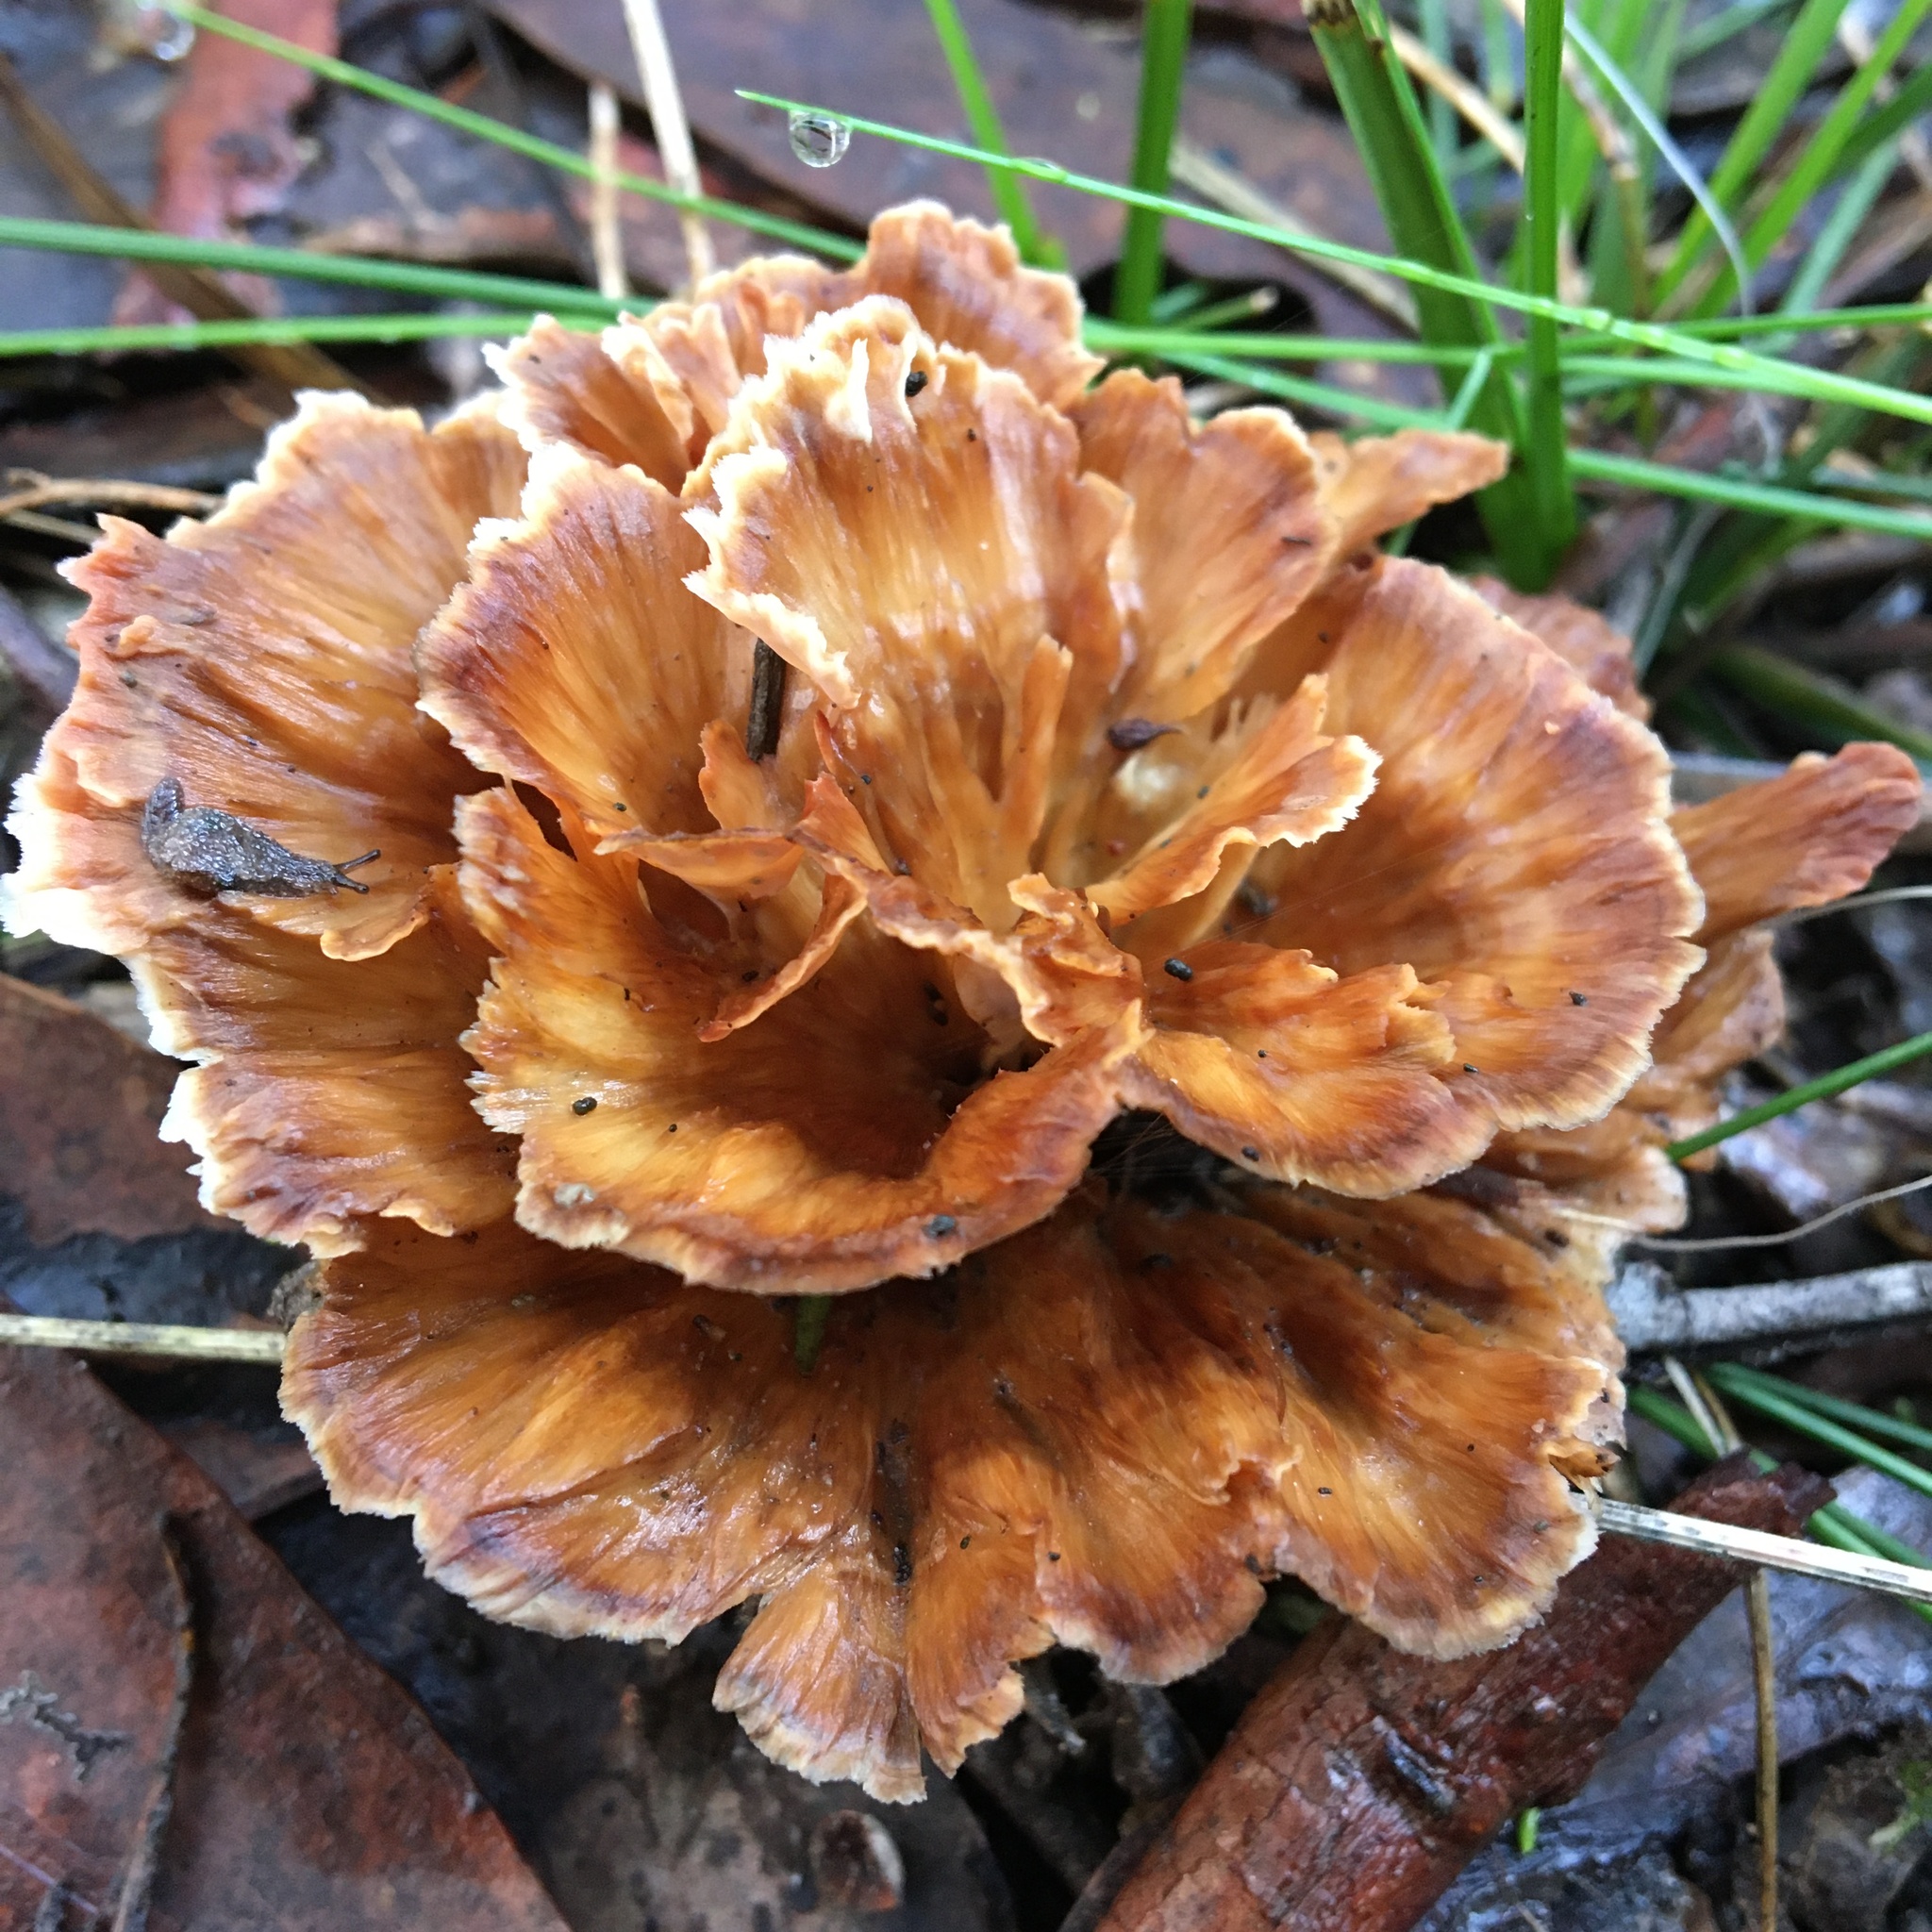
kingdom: Fungi
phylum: Basidiomycota
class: Agaricomycetes
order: Polyporales
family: Podoscyphaceae
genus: Podoscypha
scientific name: Podoscypha petalodes
